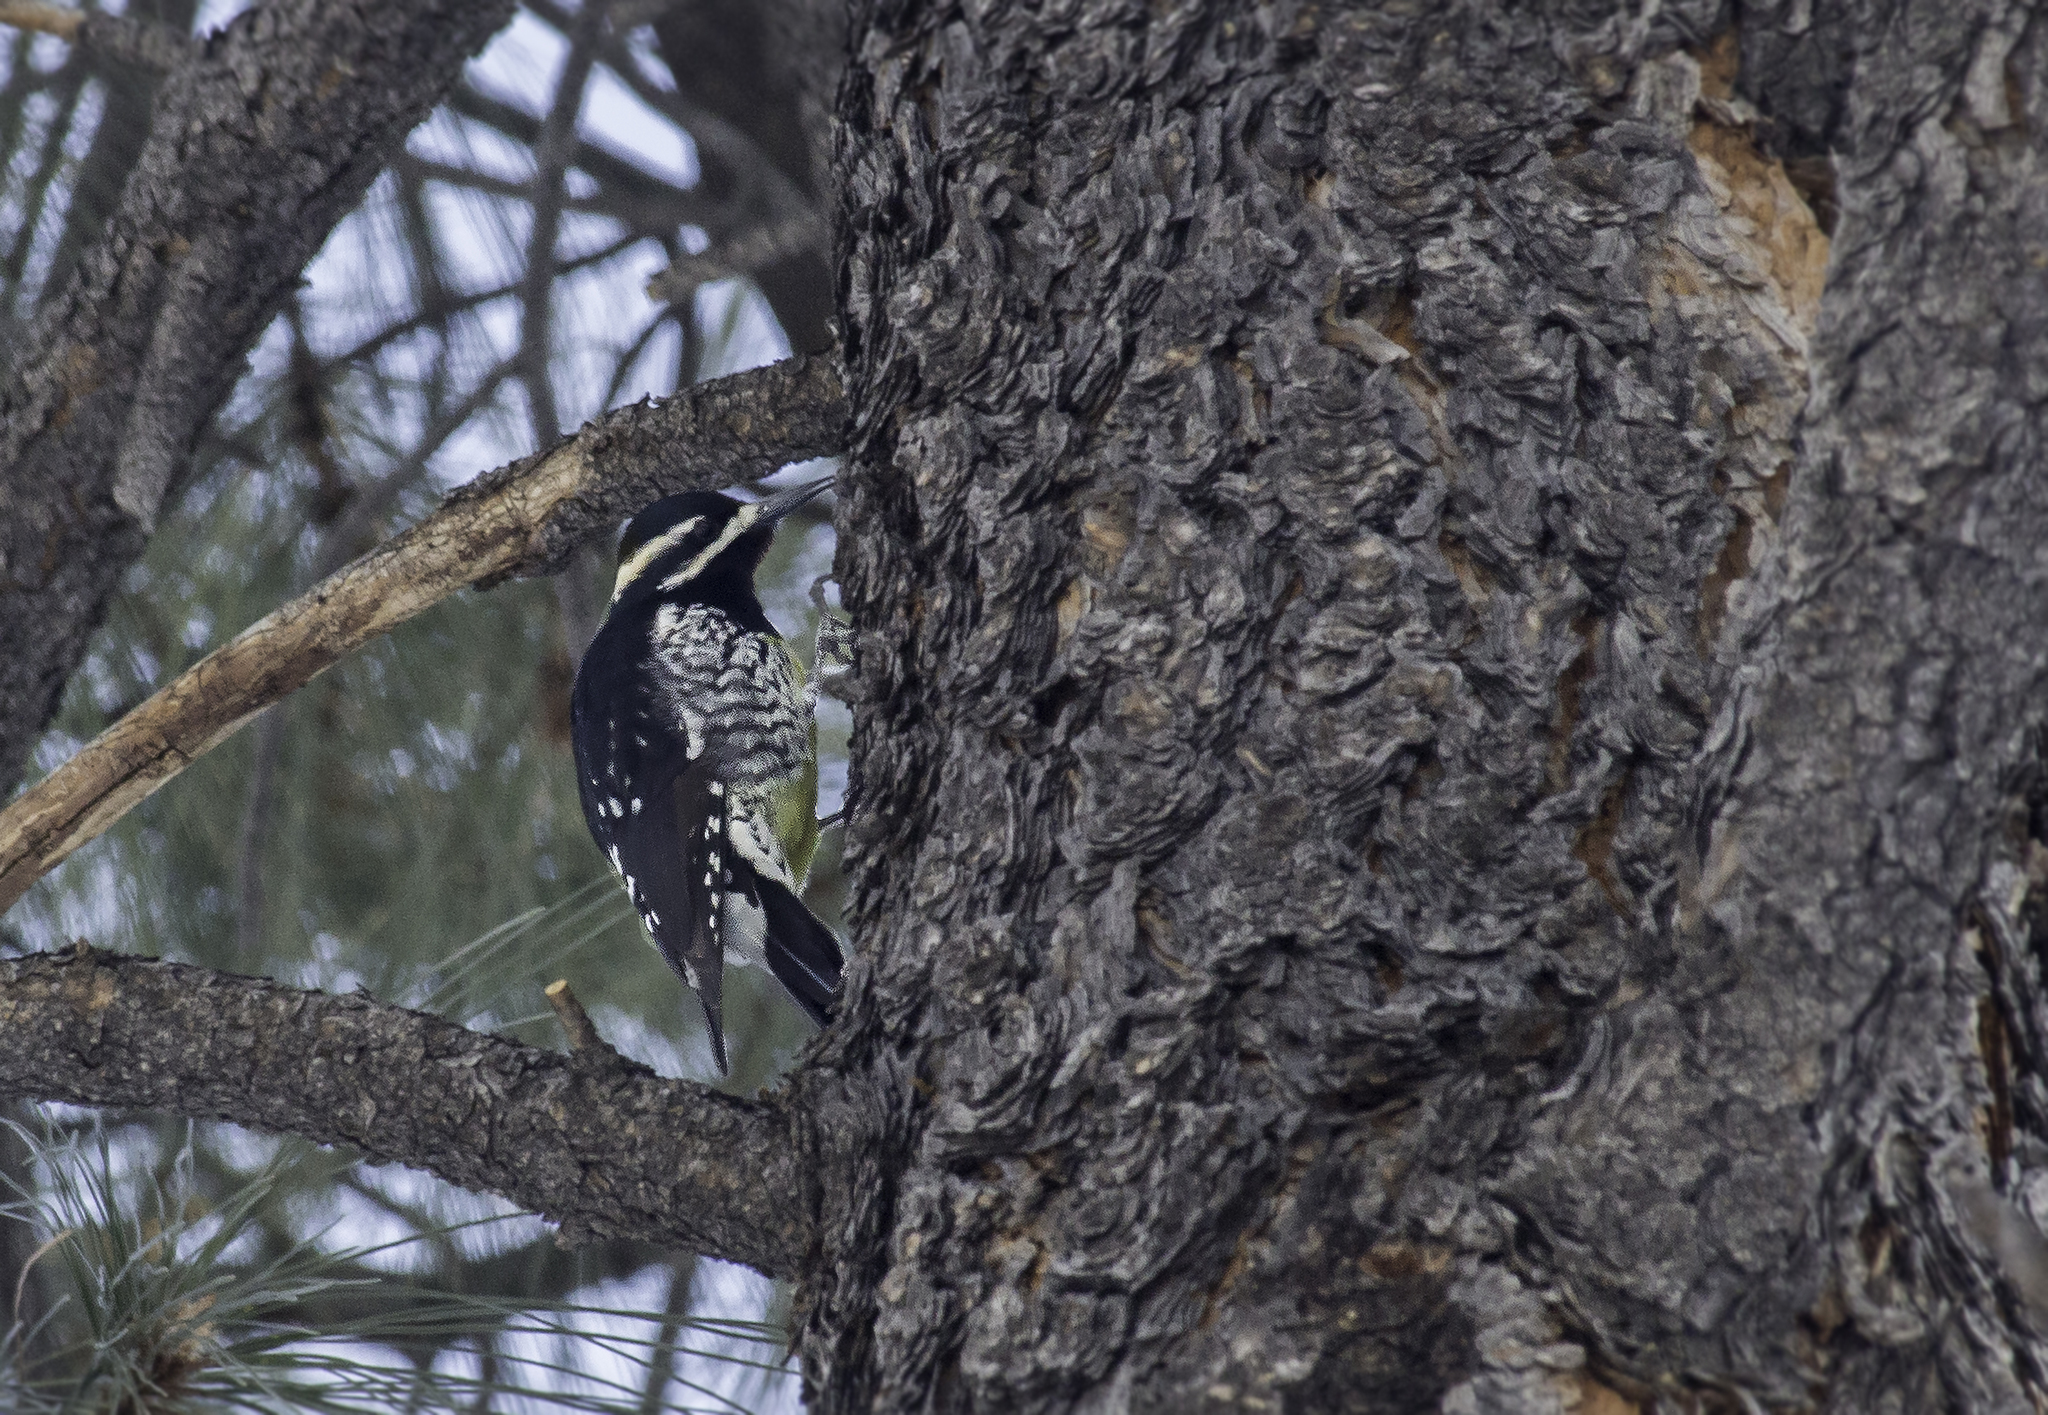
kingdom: Animalia
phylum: Chordata
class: Aves
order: Piciformes
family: Picidae
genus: Sphyrapicus
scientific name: Sphyrapicus thyroideus
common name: Williamson's sapsucker
